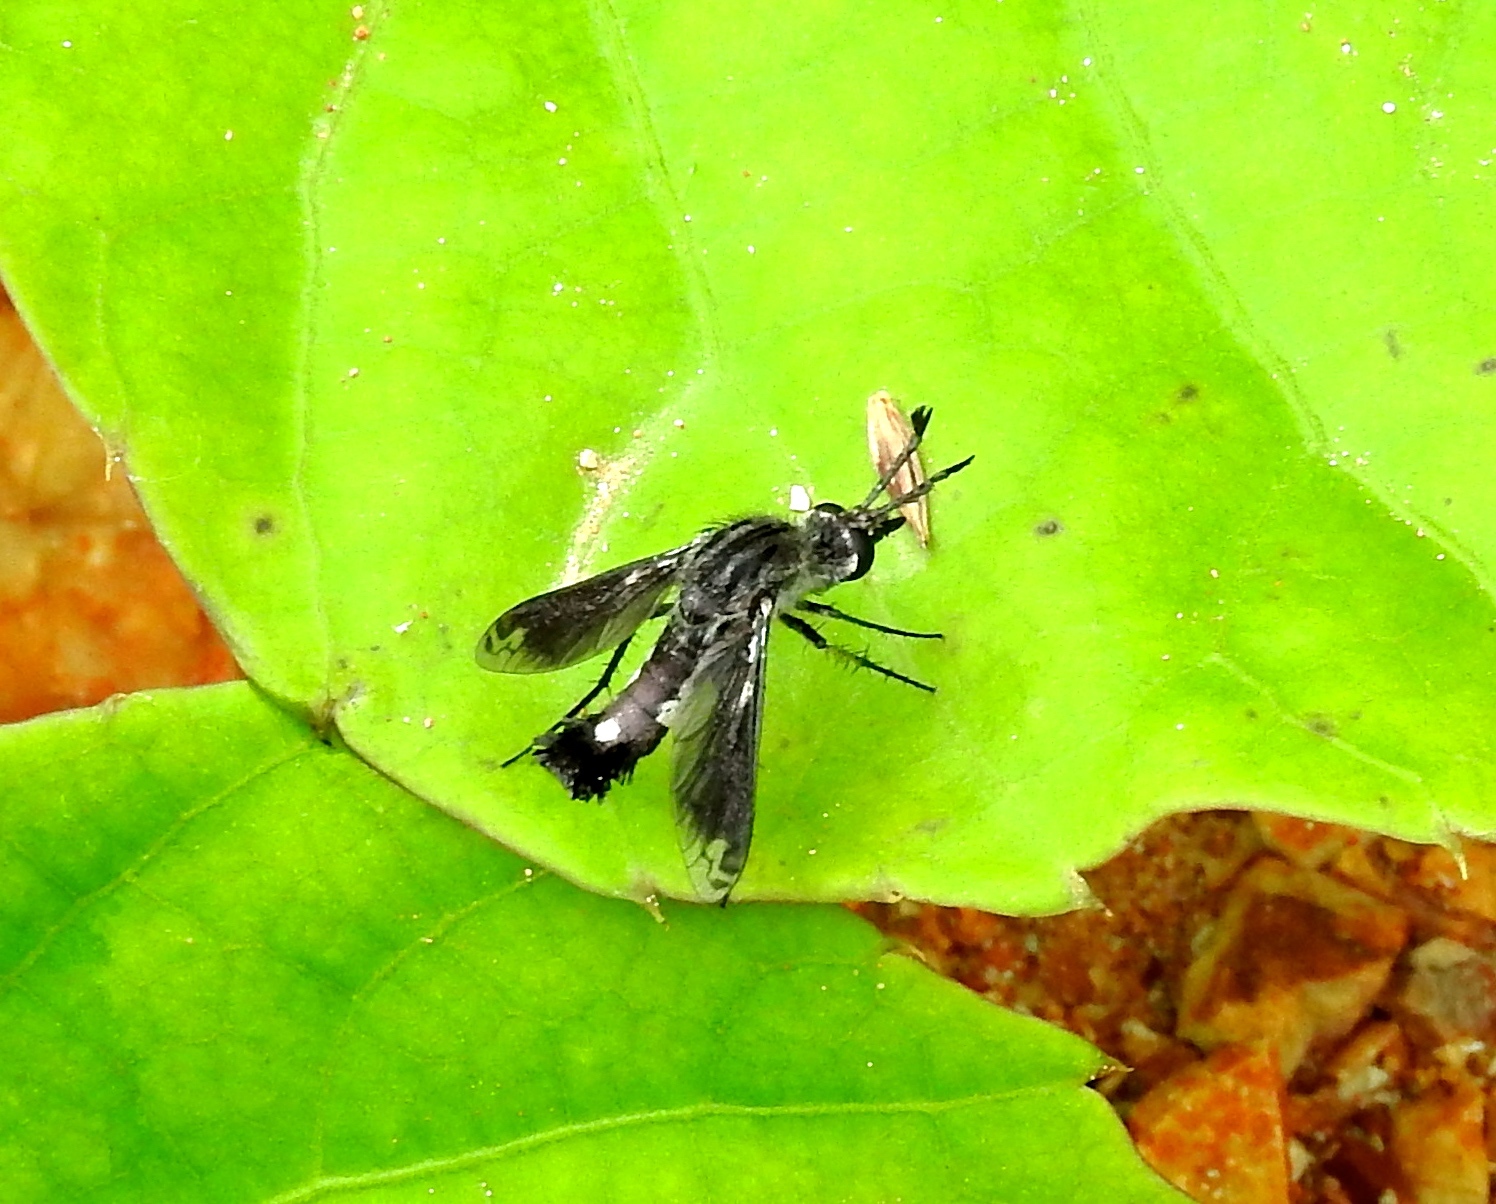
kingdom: Animalia
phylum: Arthropoda
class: Insecta
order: Diptera
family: Bombyliidae
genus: Lepidophora
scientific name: Lepidophora vetusta
